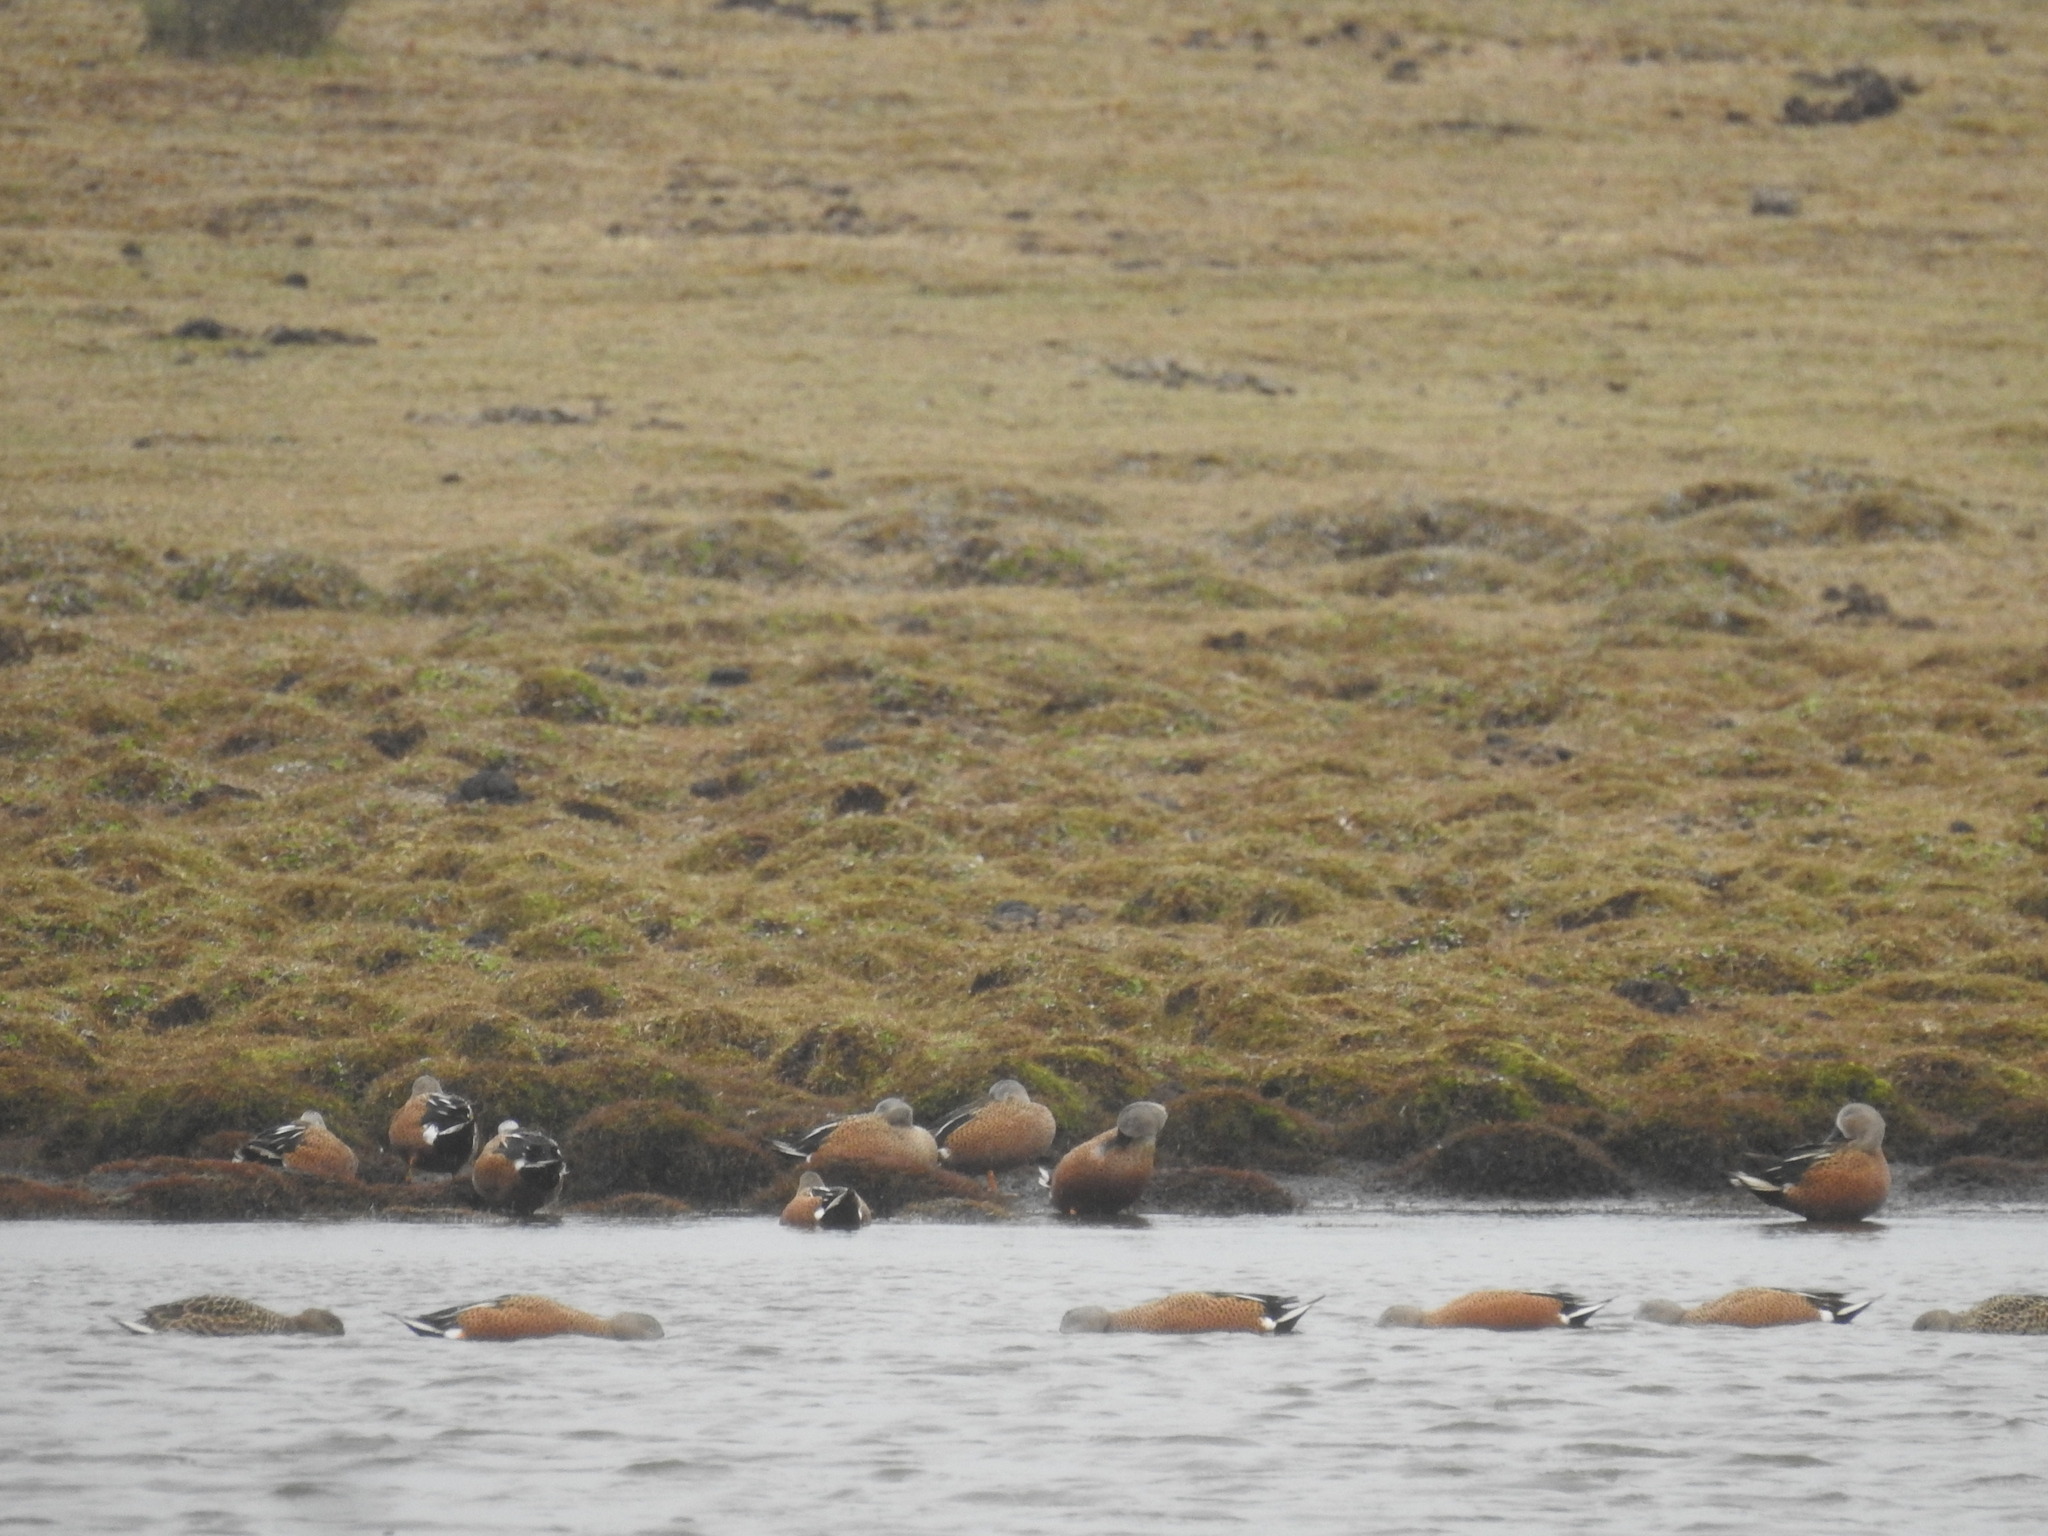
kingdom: Animalia
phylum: Chordata
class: Aves
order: Anseriformes
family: Anatidae
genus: Spatula
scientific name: Spatula platalea
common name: Red shoveler
